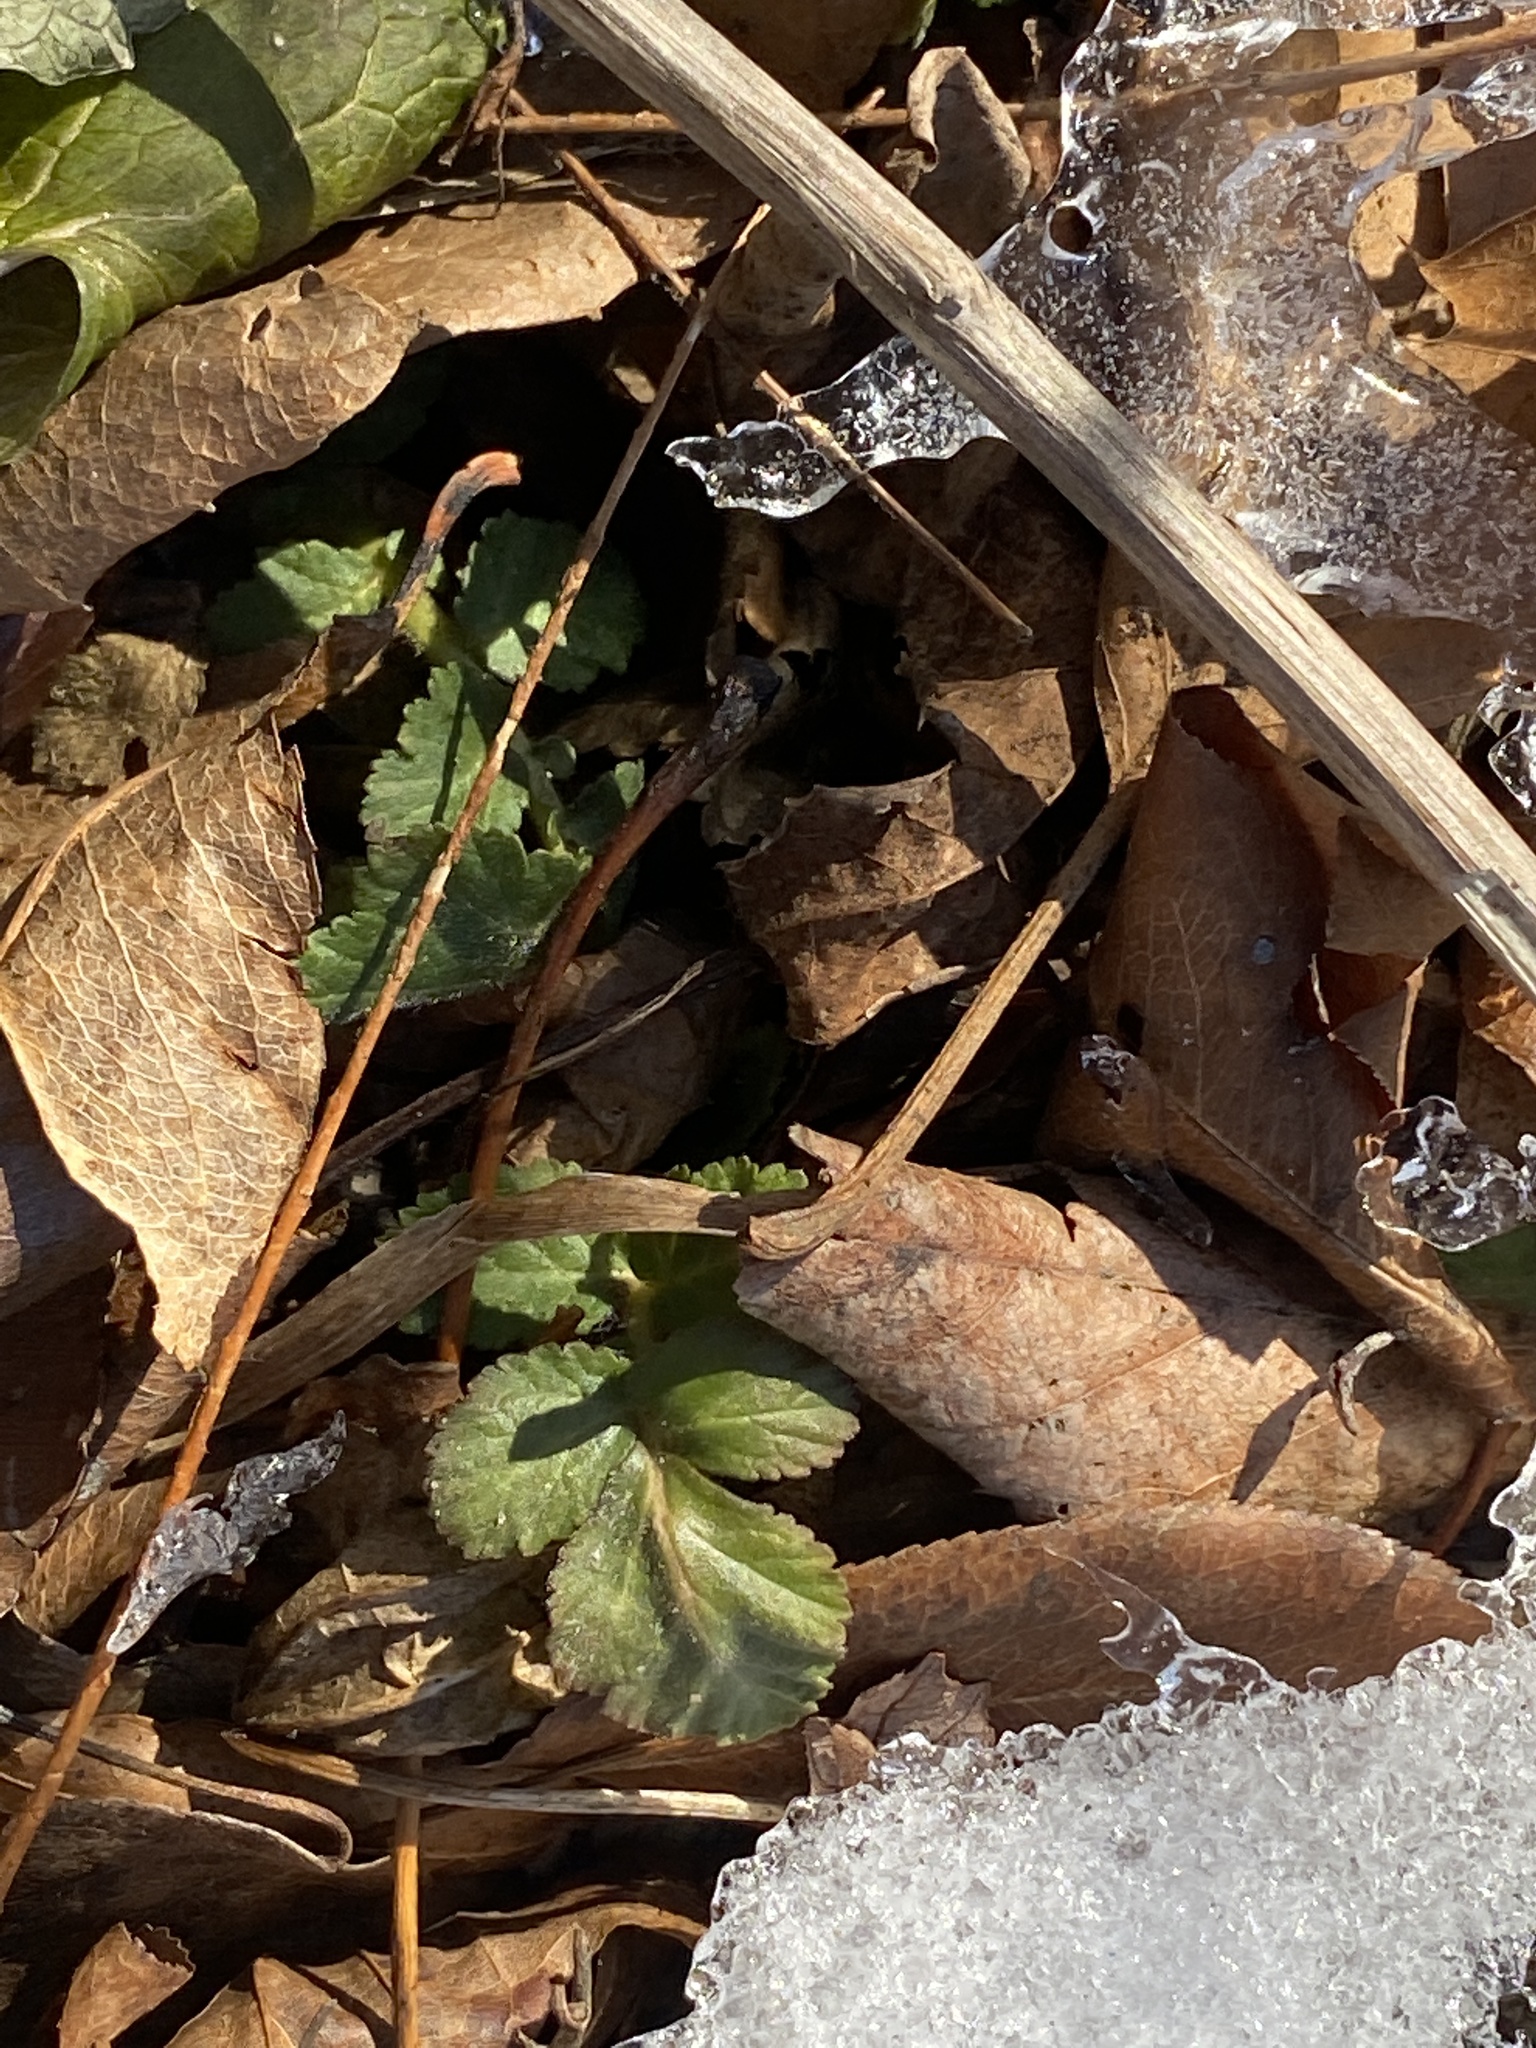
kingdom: Plantae
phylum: Tracheophyta
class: Magnoliopsida
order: Rosales
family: Rosaceae
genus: Geum
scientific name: Geum canadense
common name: White avens
